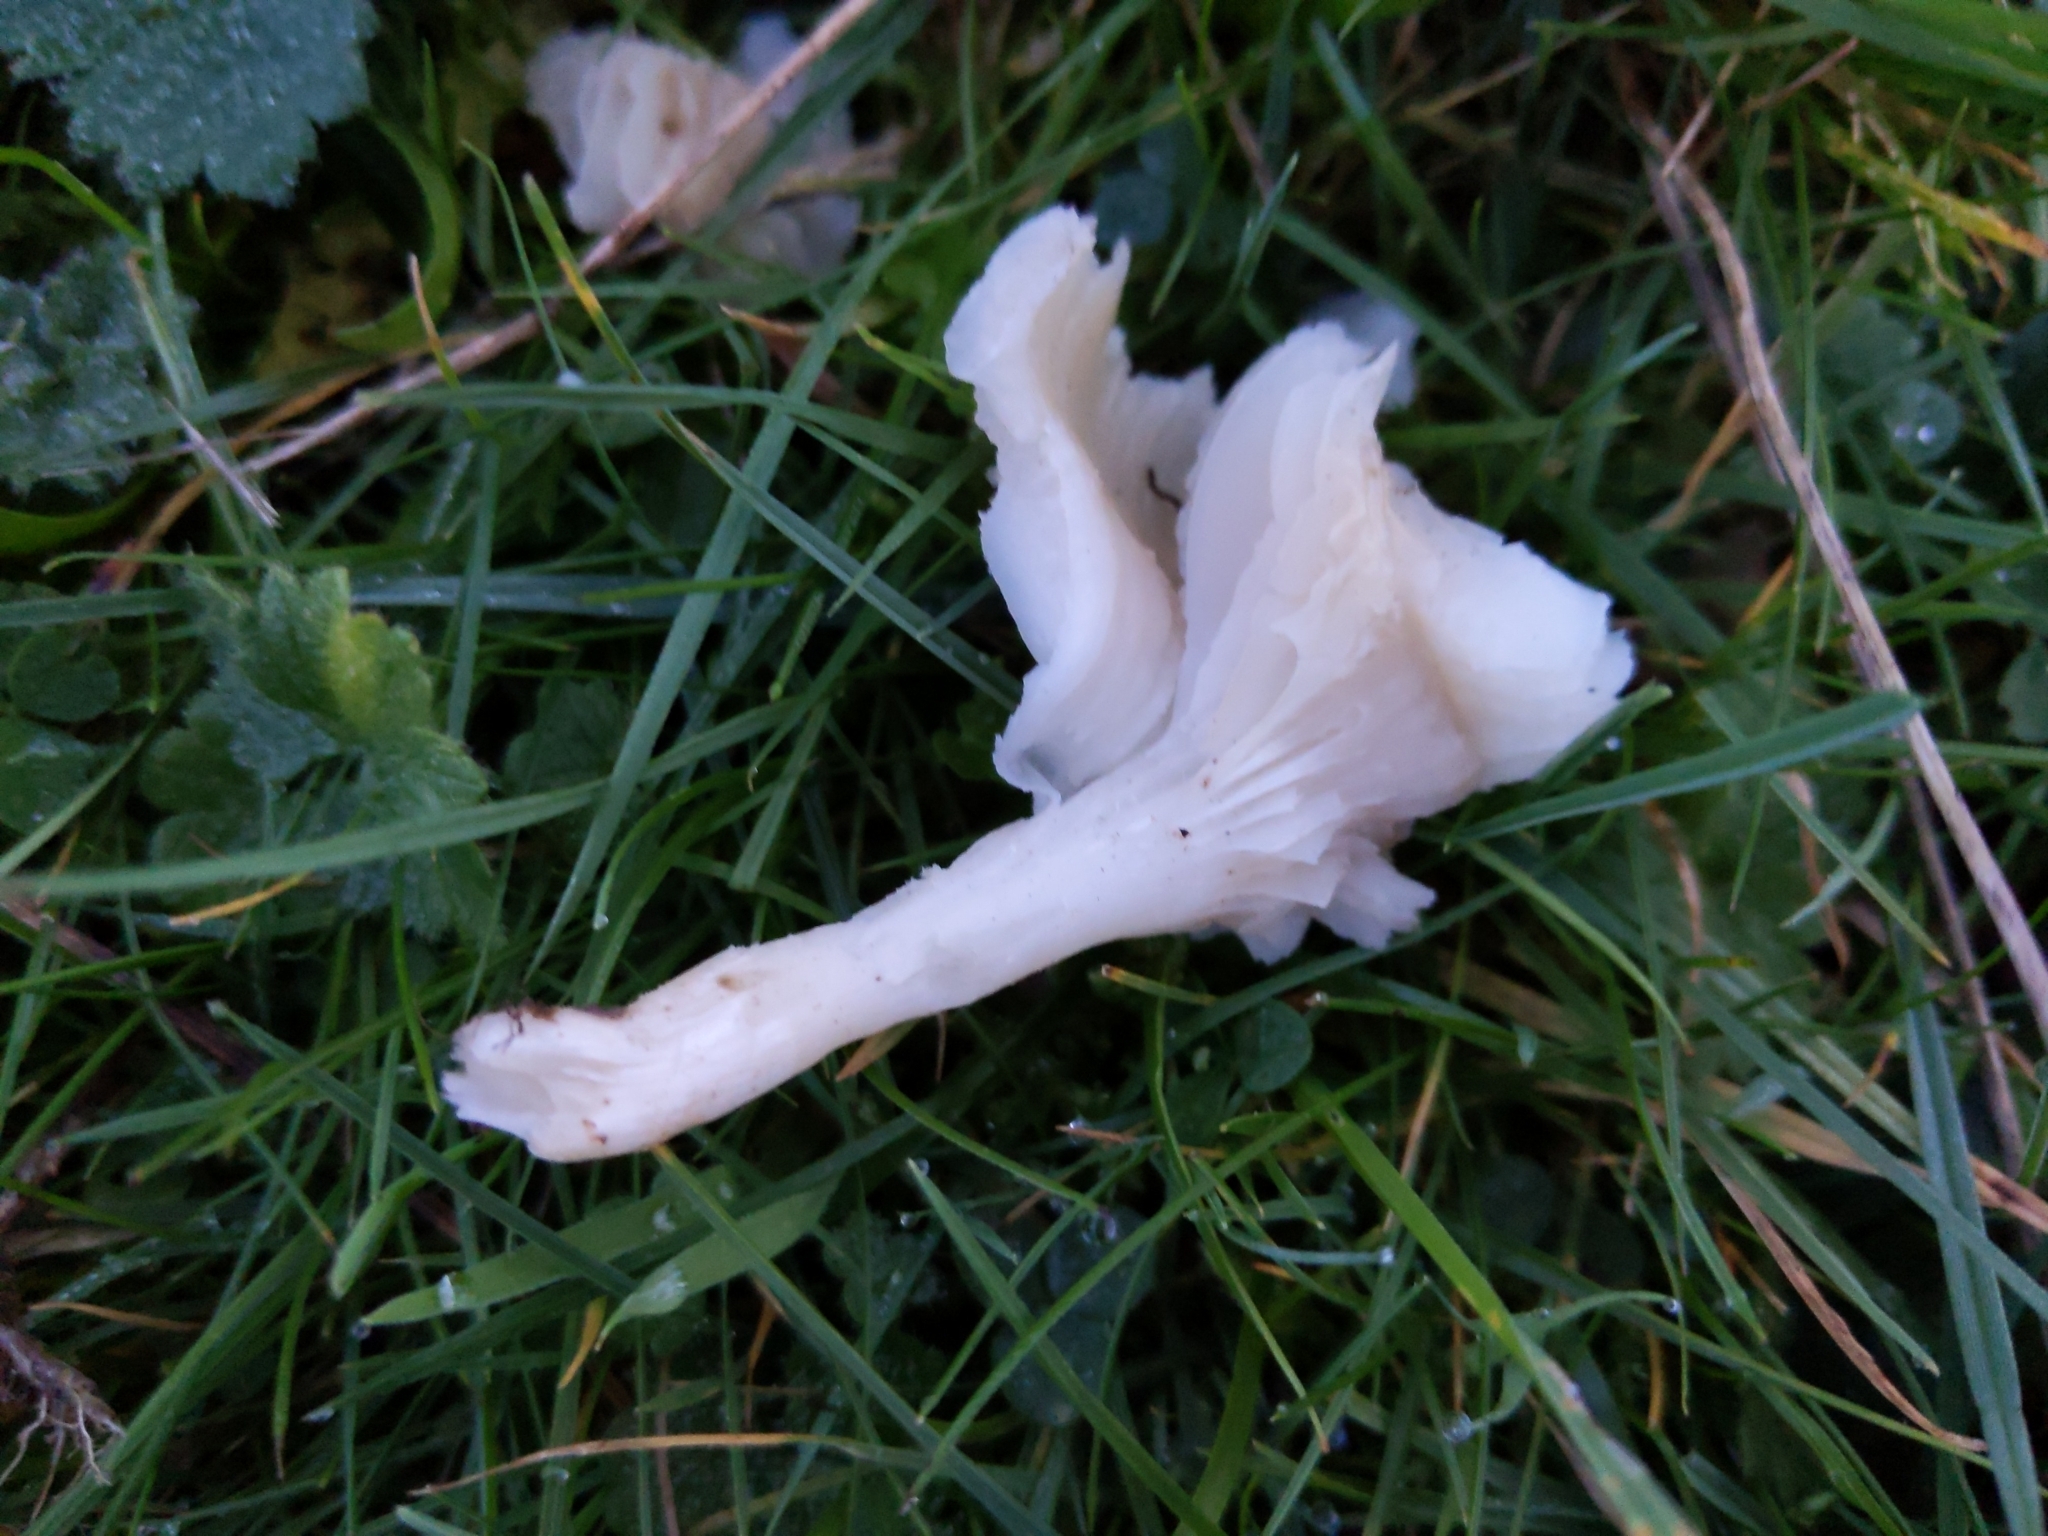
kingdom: Fungi
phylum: Basidiomycota
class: Agaricomycetes
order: Agaricales
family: Hygrophoraceae
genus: Cuphophyllus
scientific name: Cuphophyllus virgineus
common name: Snowy waxcap
